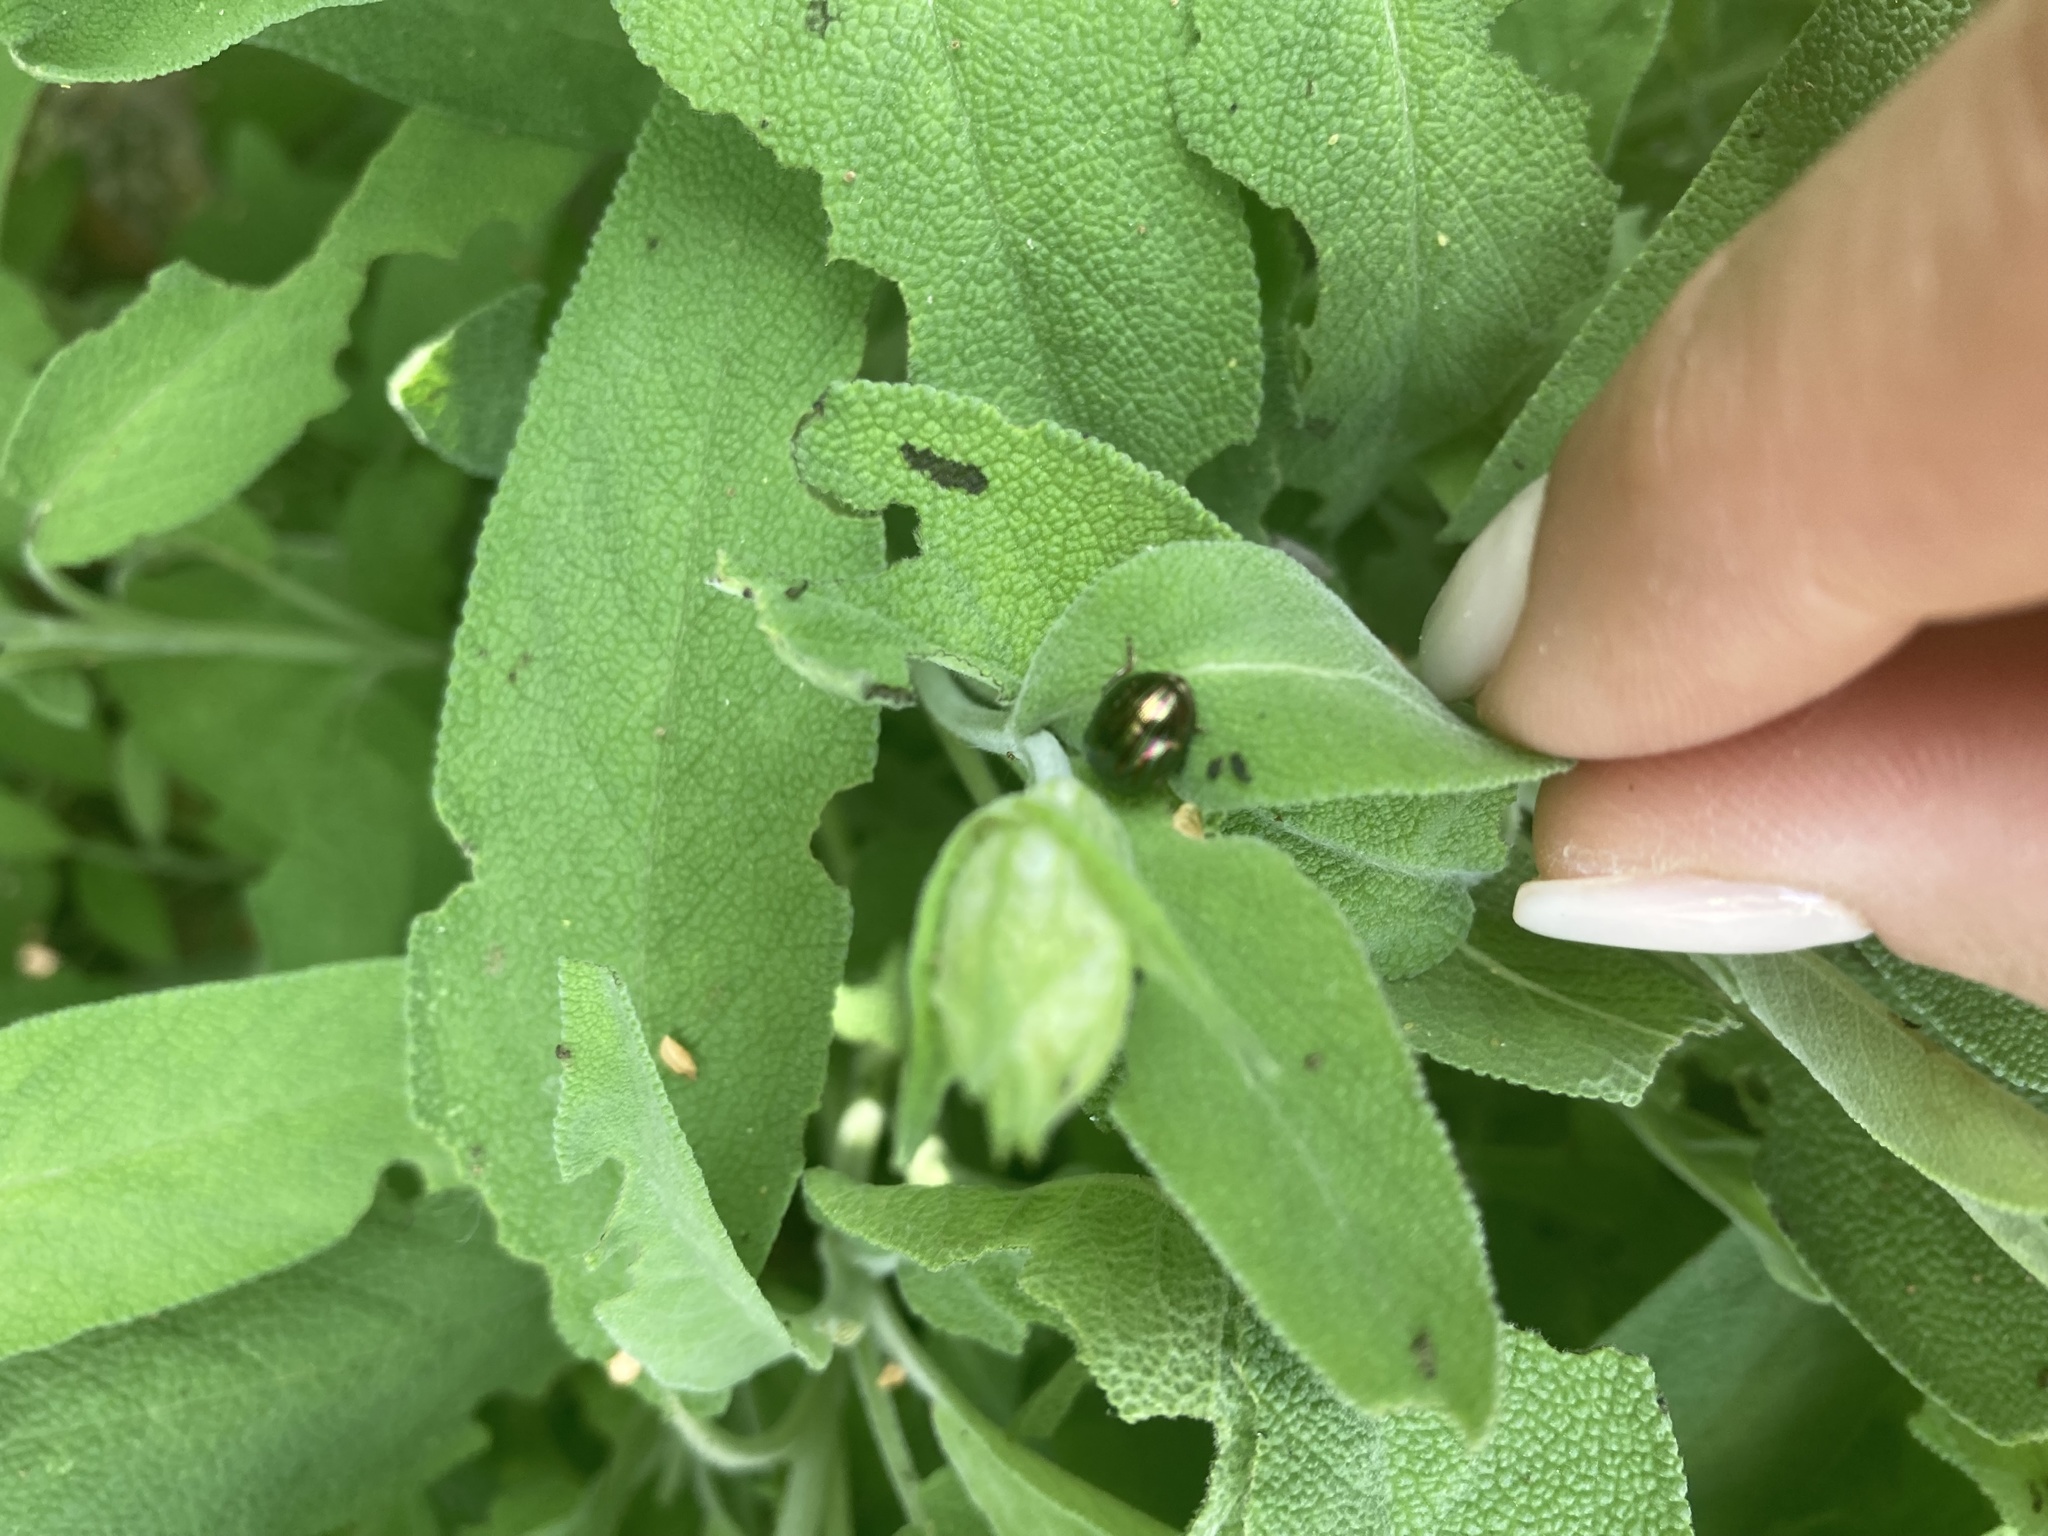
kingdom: Animalia
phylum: Arthropoda
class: Insecta
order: Coleoptera
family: Chrysomelidae
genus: Chrysolina
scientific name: Chrysolina americana
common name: Rosemary beetle
